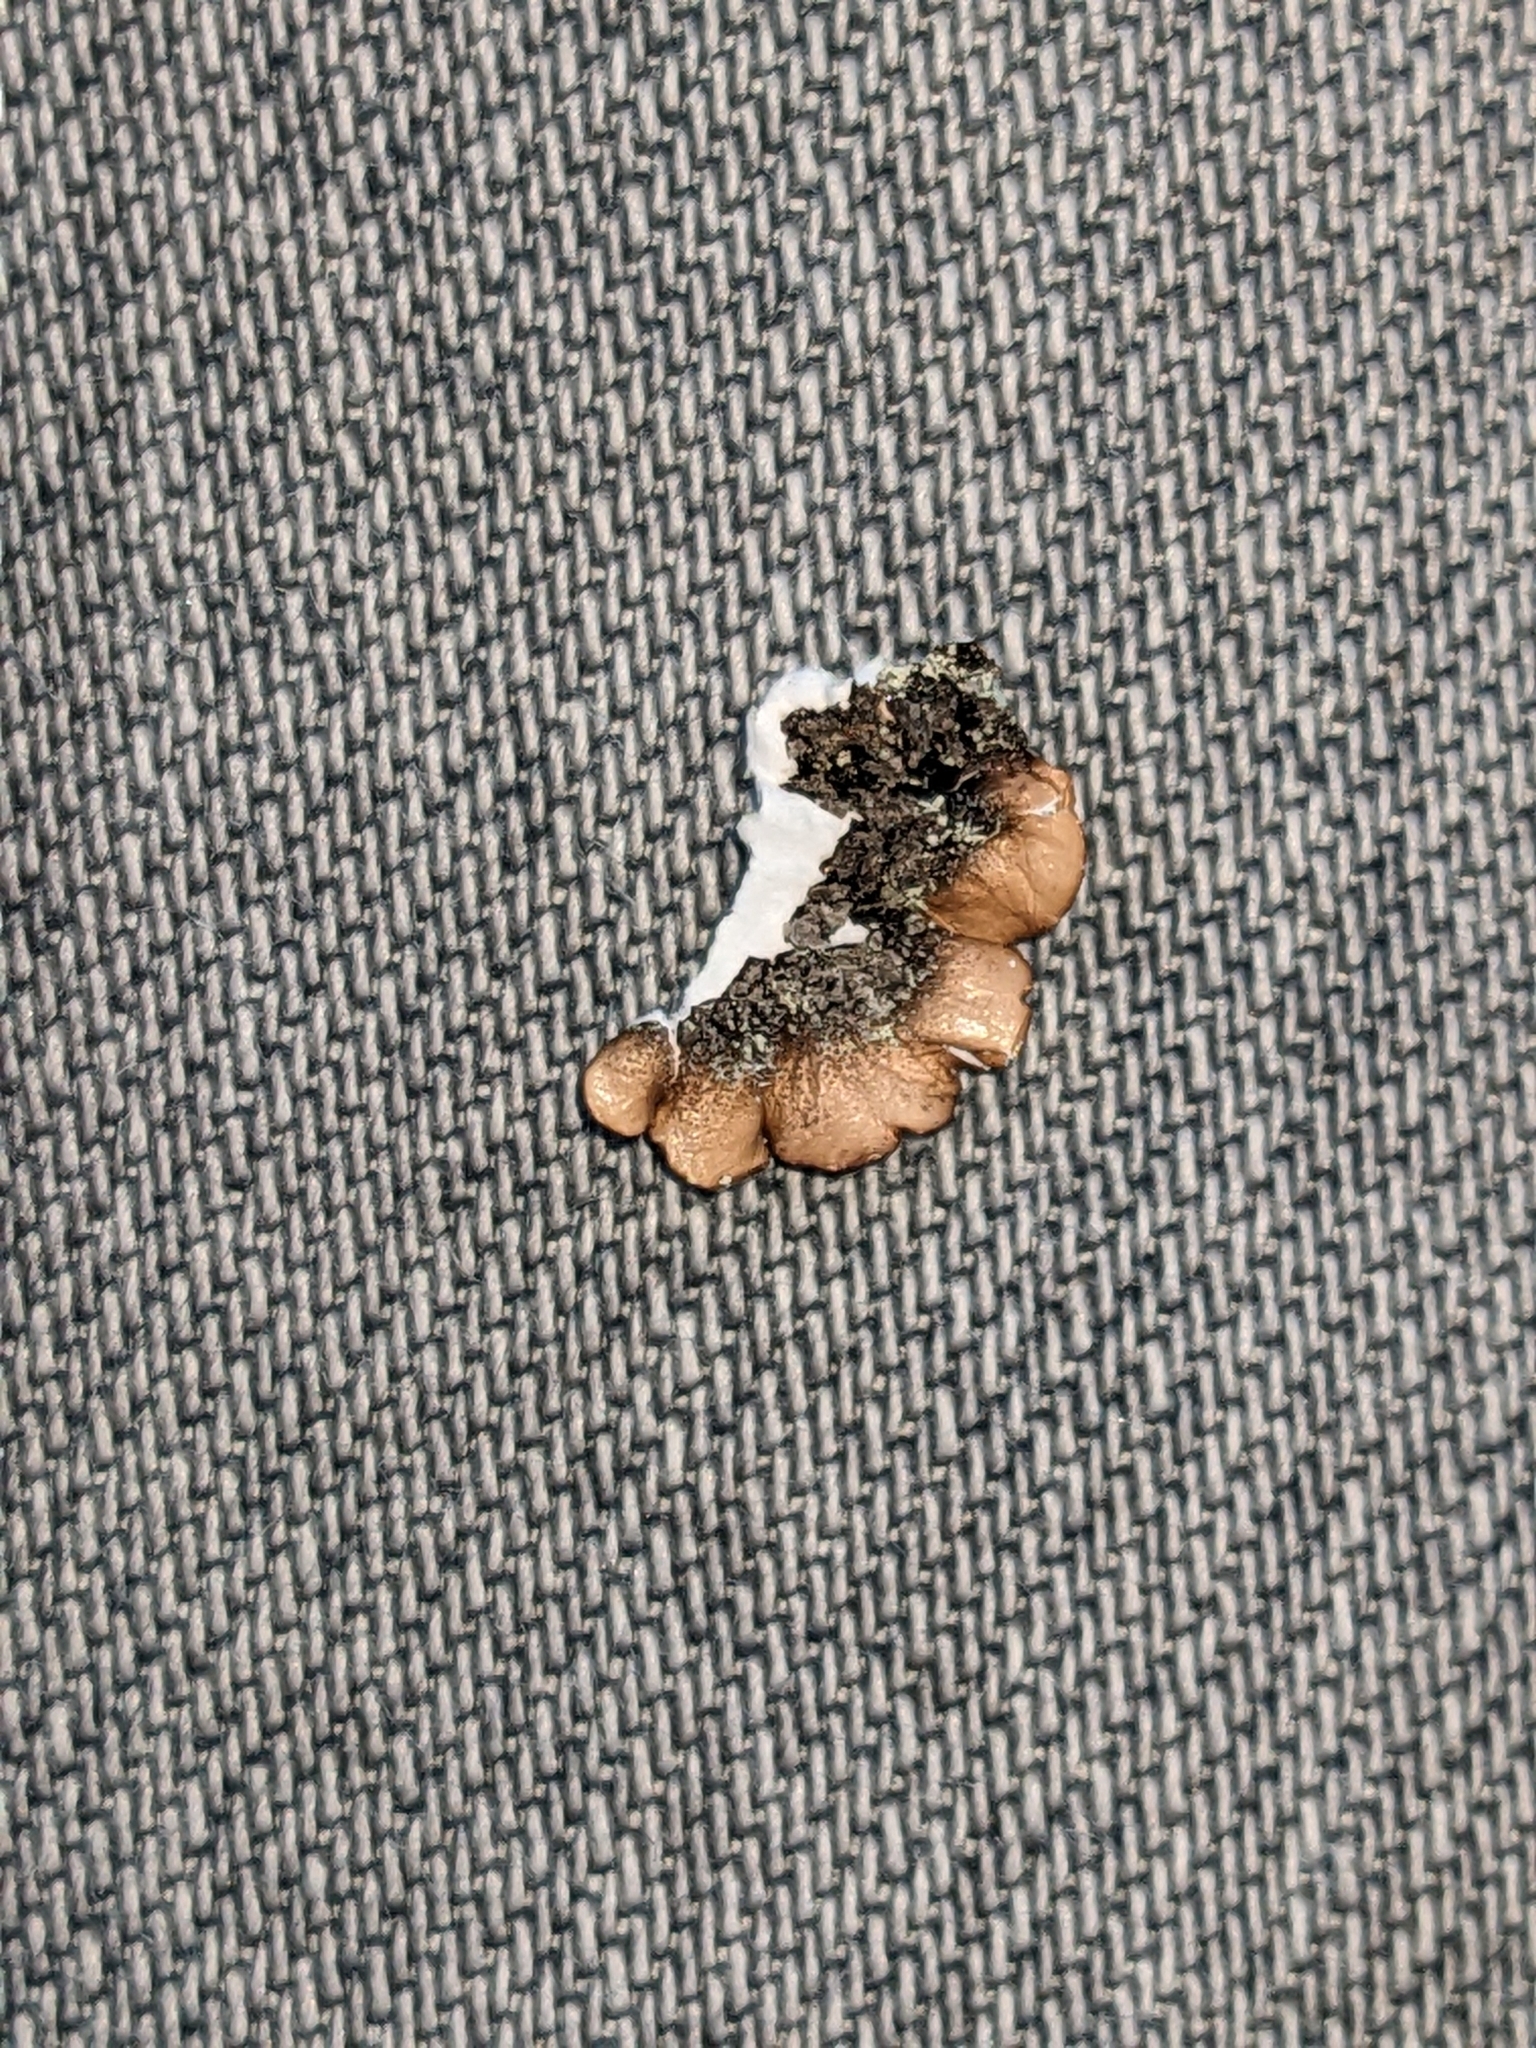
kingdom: Fungi
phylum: Ascomycota
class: Lecanoromycetes
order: Lecanorales
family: Parmeliaceae
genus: Flavopunctelia
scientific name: Flavopunctelia flaventior
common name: Speckled greenshield
